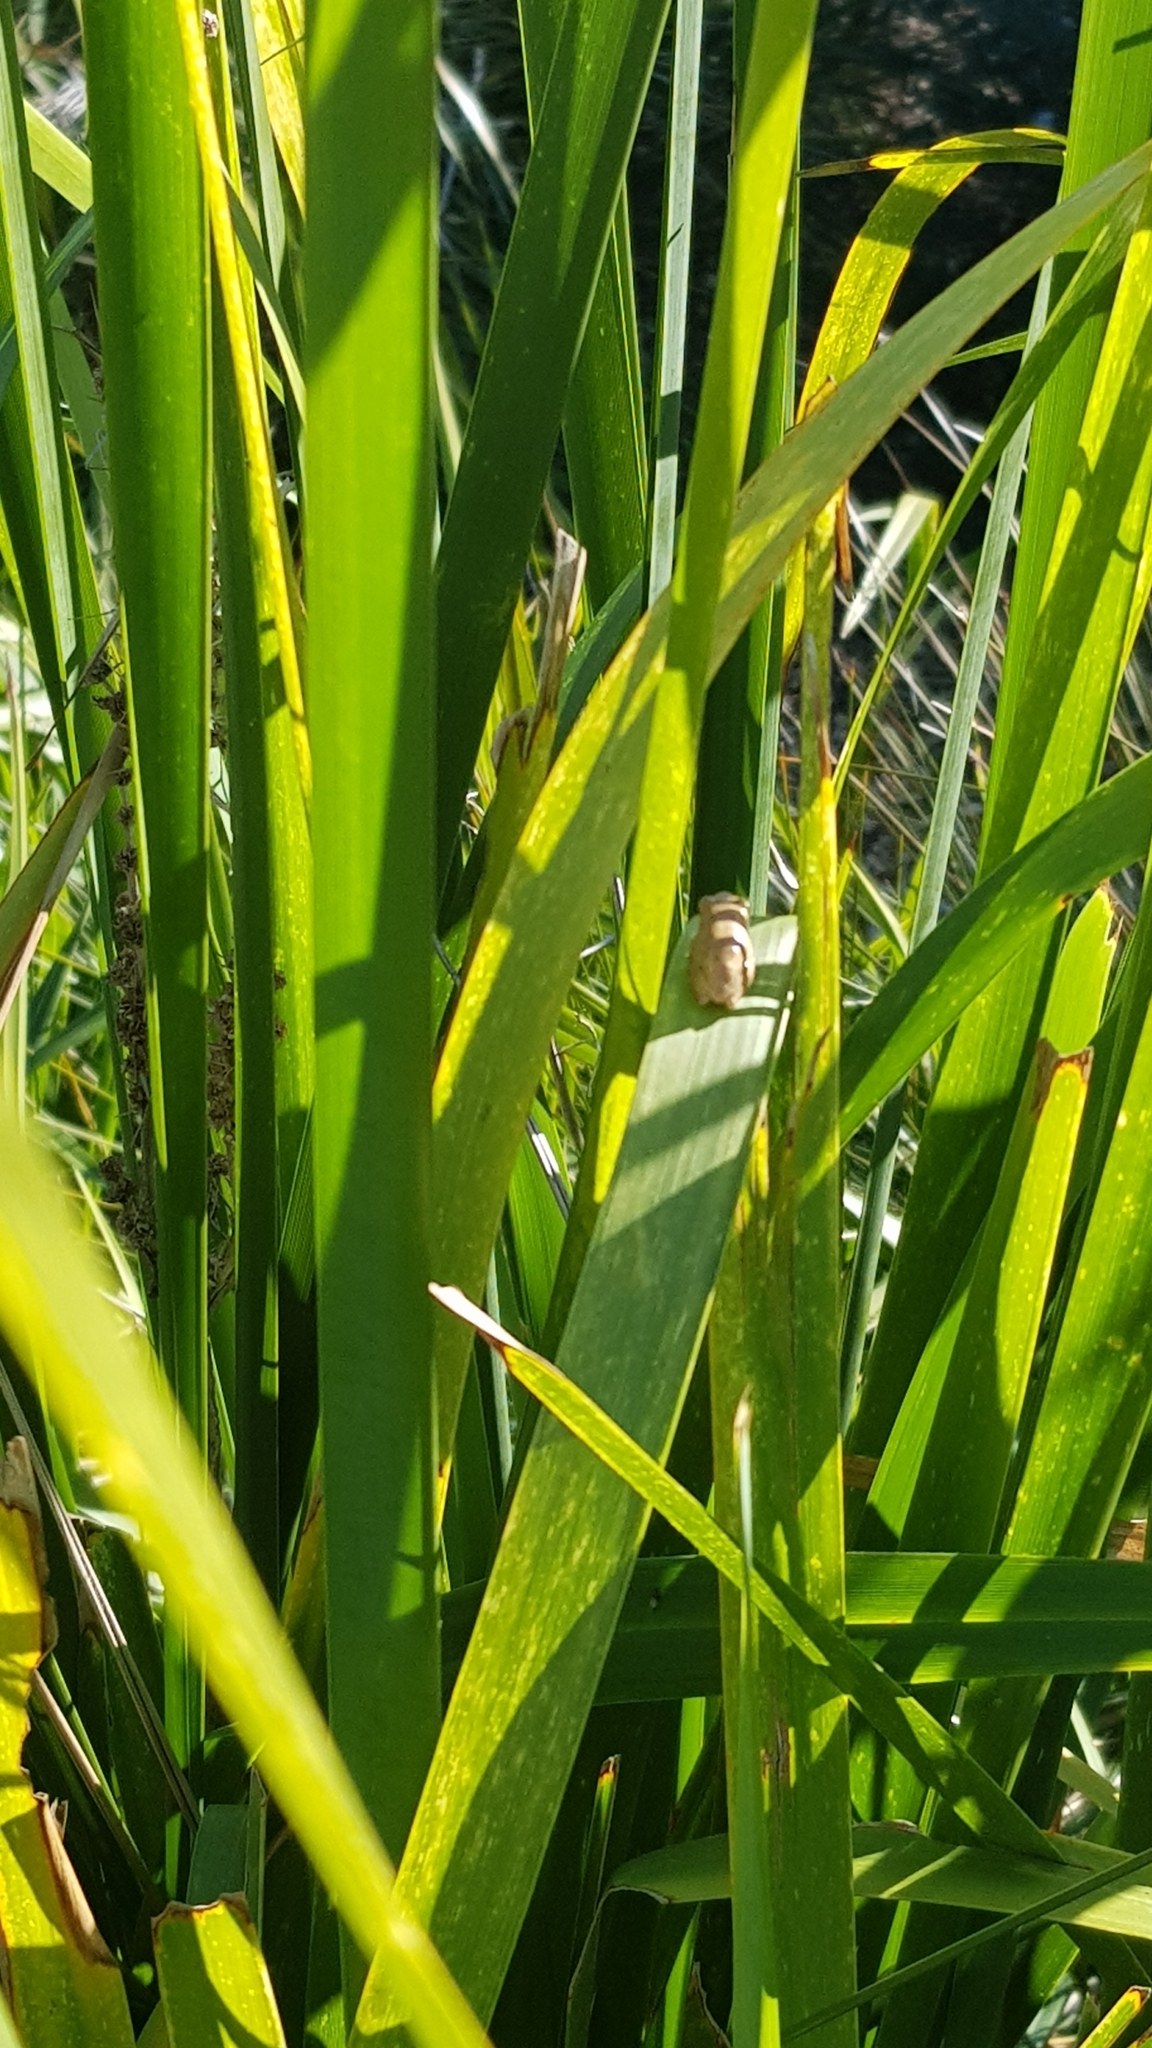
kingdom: Animalia
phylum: Chordata
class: Amphibia
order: Anura
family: Pelodryadidae
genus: Litoria
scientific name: Litoria fallax
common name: Eastern dwarf treefrog
